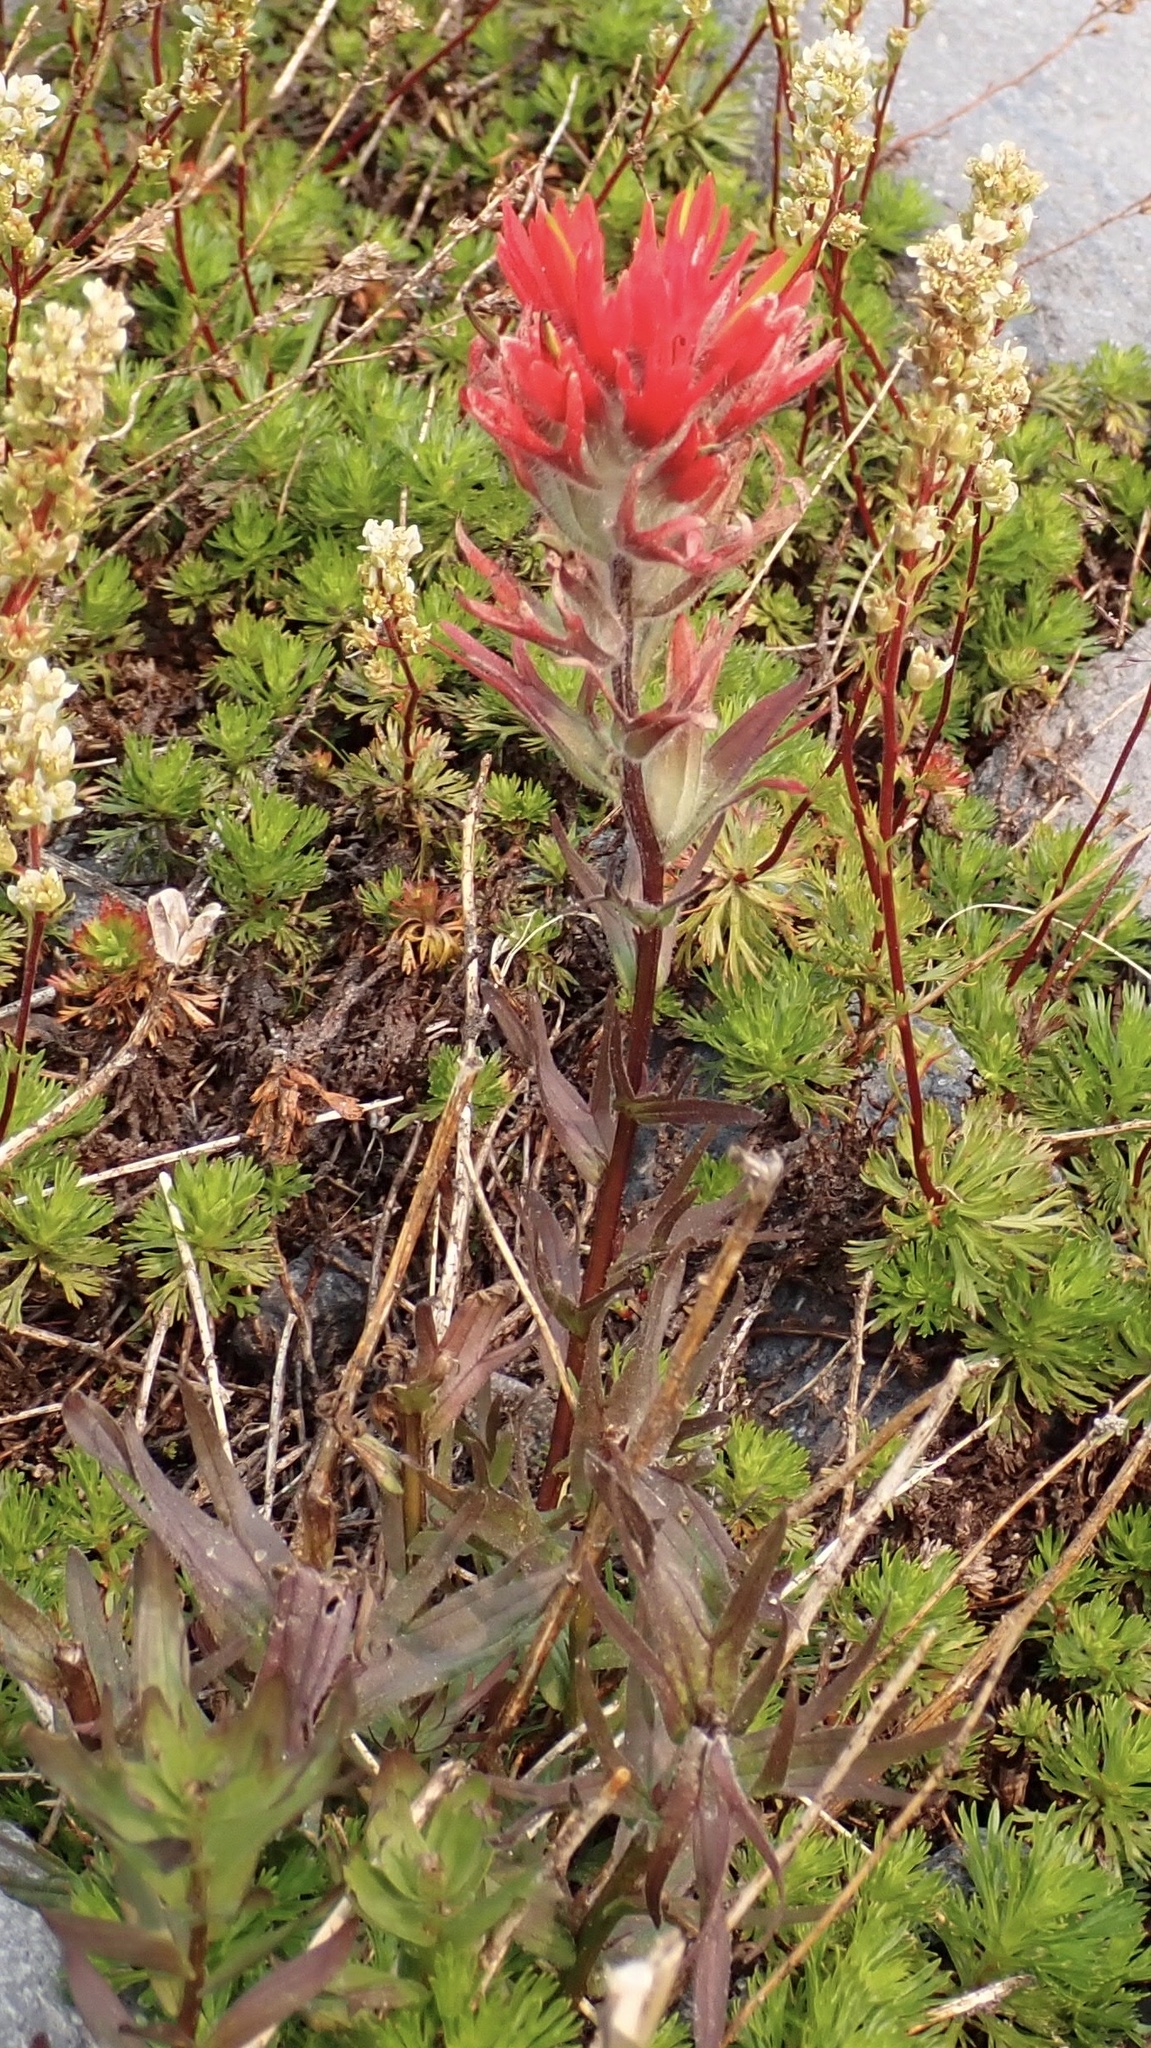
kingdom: Plantae
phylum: Tracheophyta
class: Magnoliopsida
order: Lamiales
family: Orobanchaceae
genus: Castilleja
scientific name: Castilleja parviflora
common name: Mountain paintbrush
